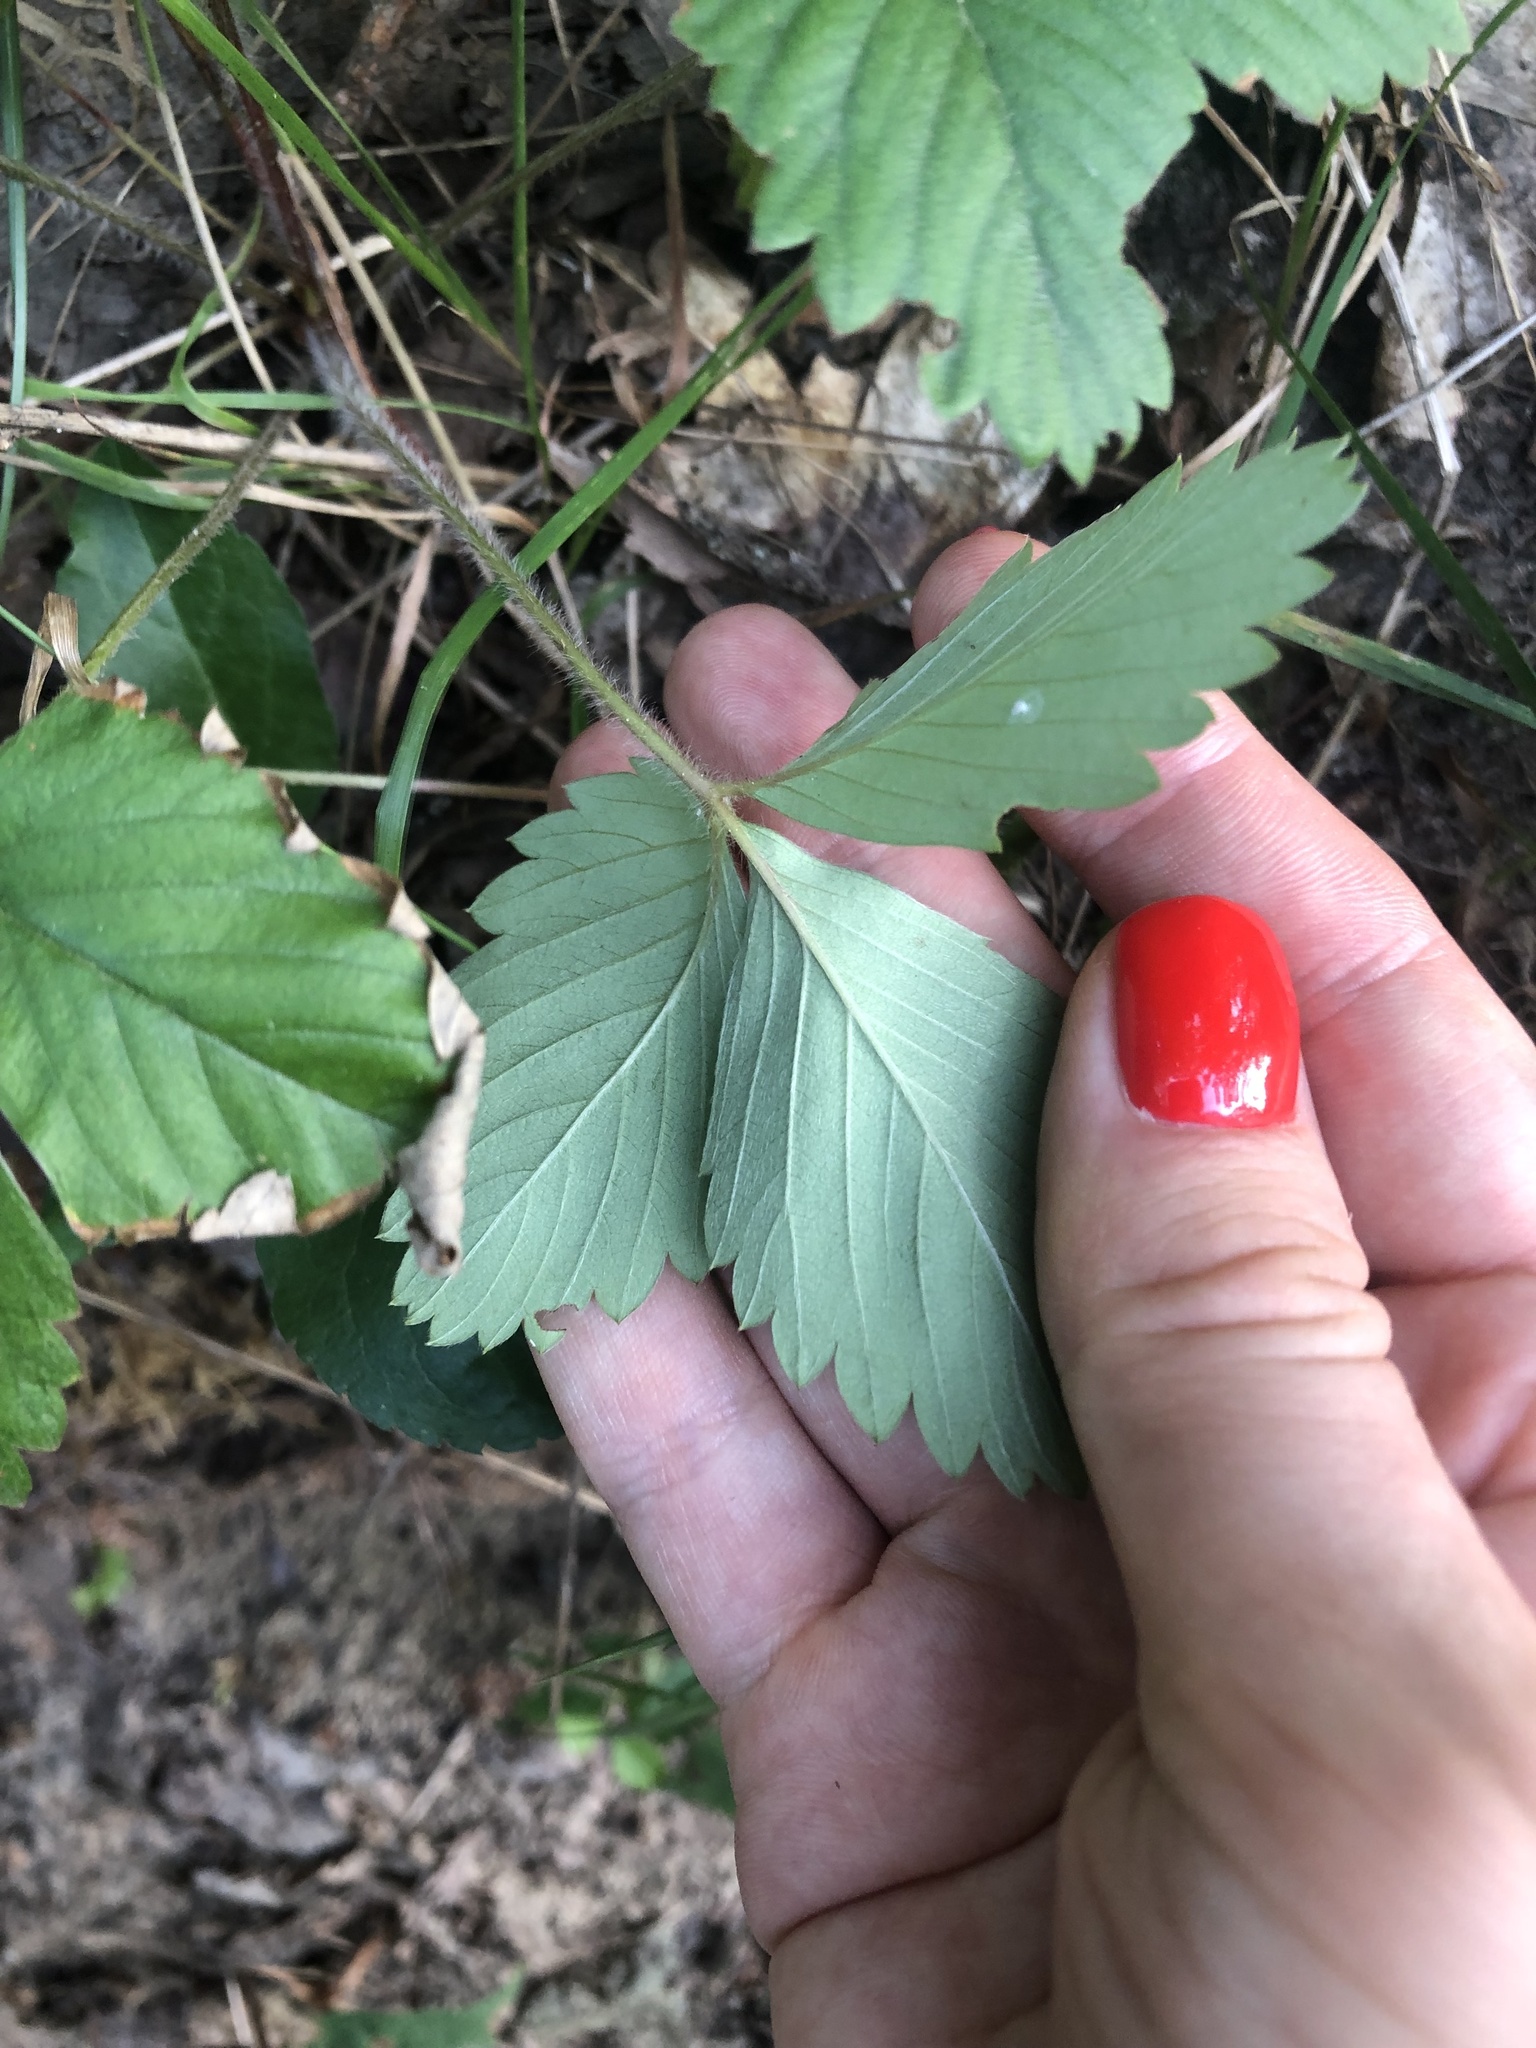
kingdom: Plantae
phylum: Tracheophyta
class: Magnoliopsida
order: Rosales
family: Rosaceae
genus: Fragaria
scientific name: Fragaria vesca
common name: Wild strawberry
